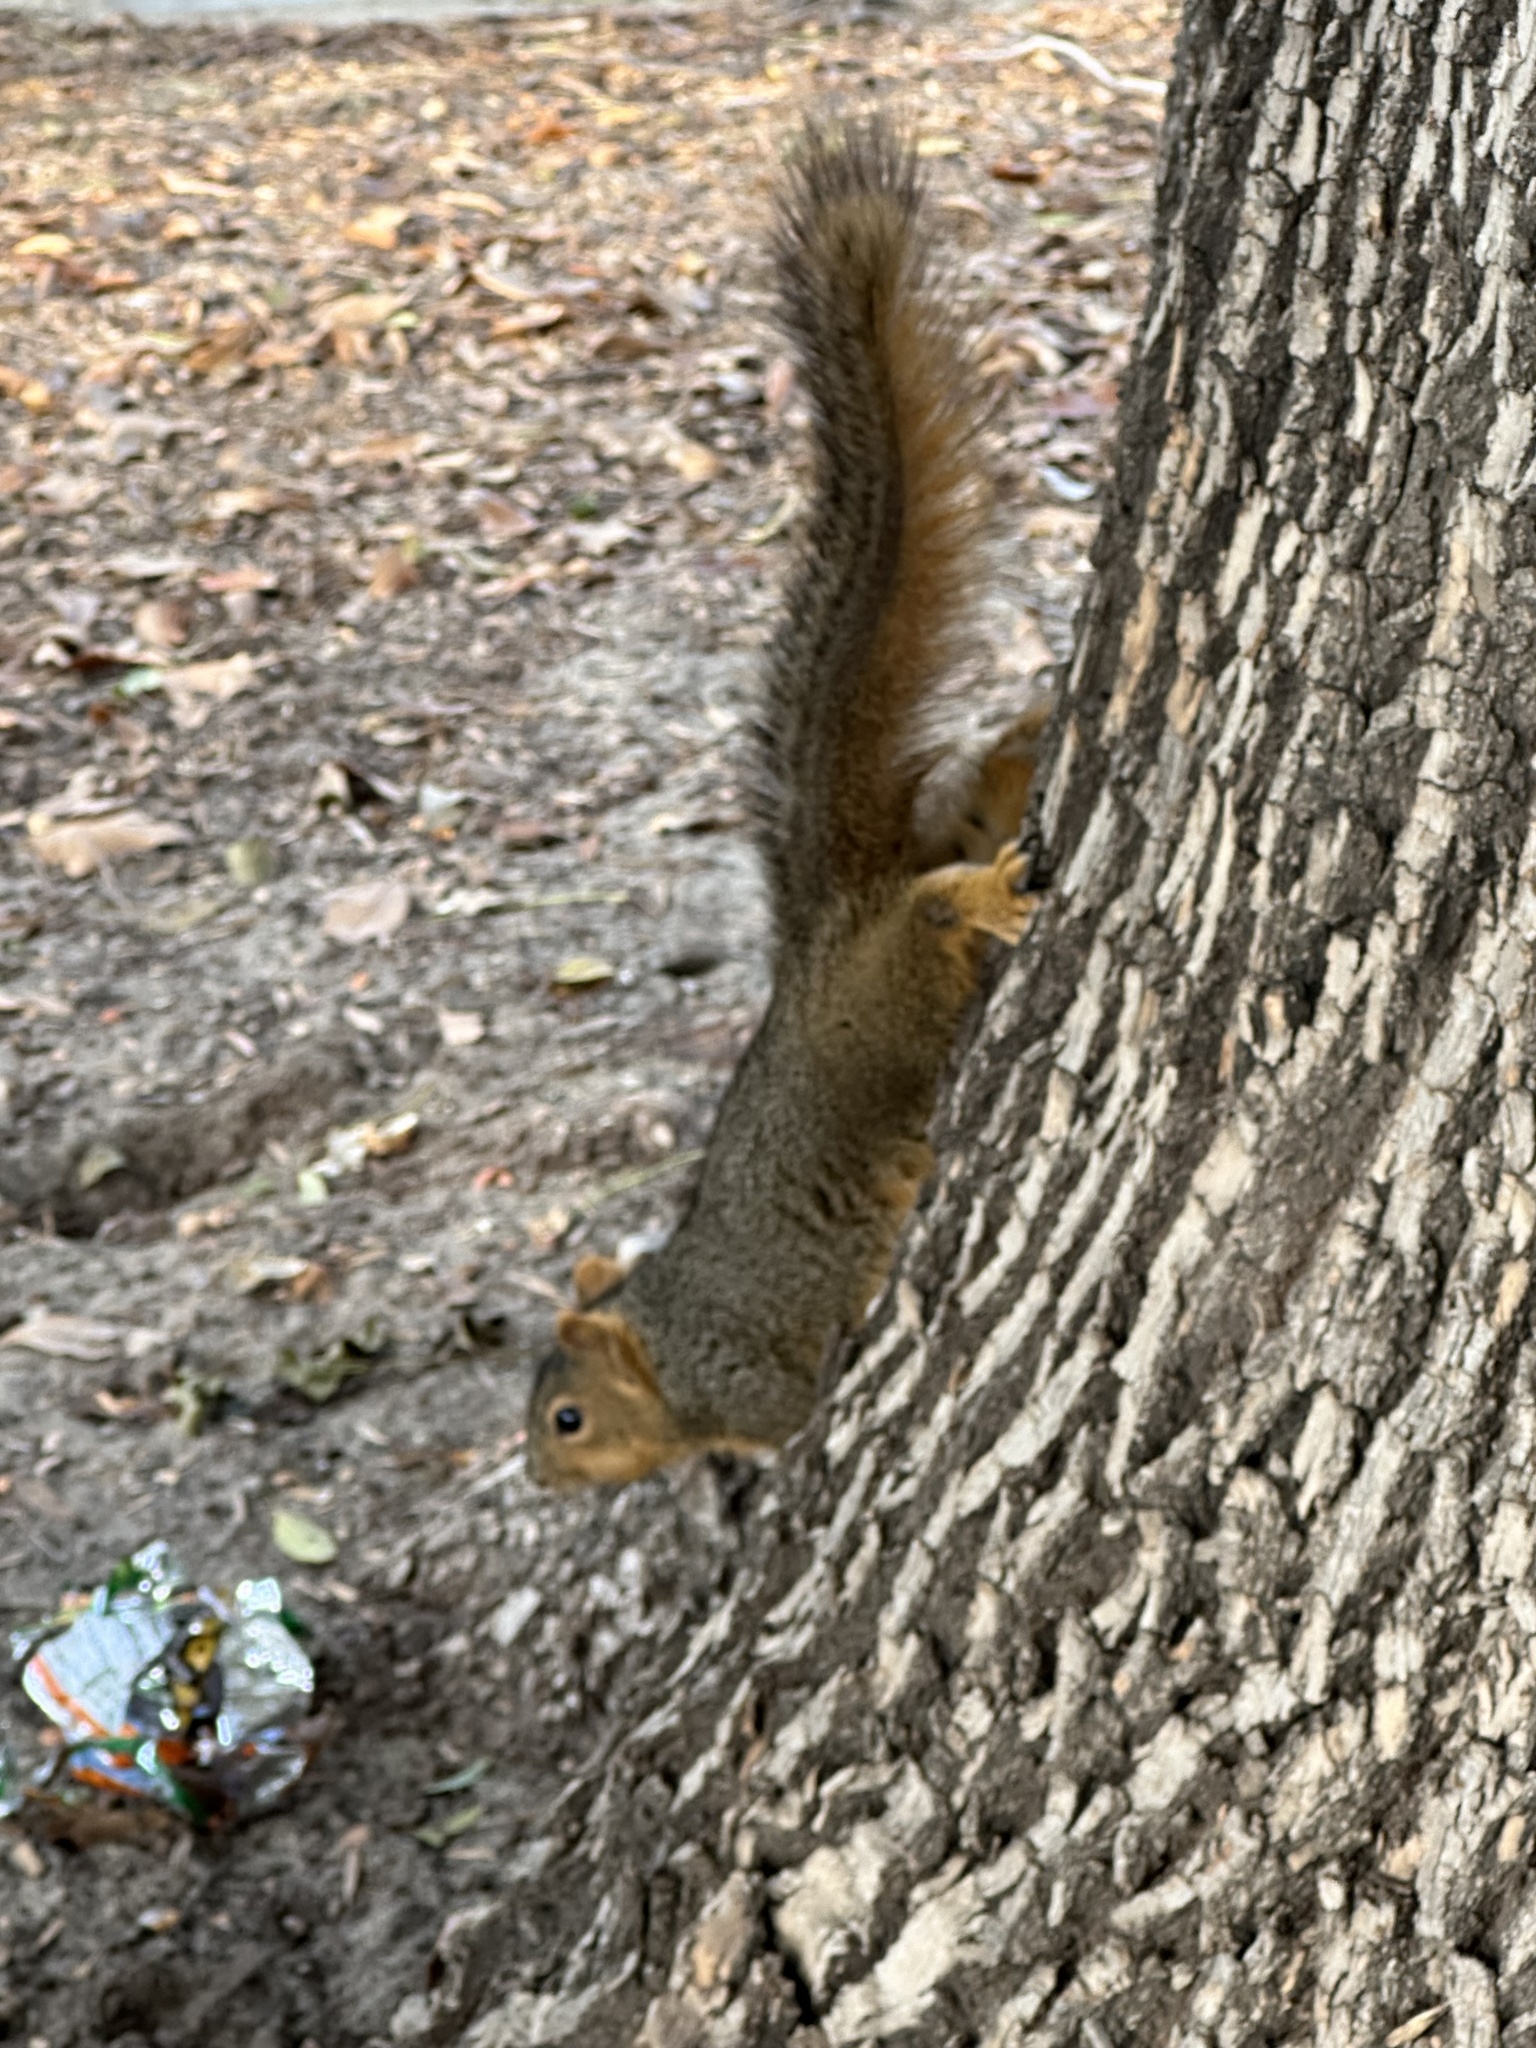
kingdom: Animalia
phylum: Chordata
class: Mammalia
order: Rodentia
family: Sciuridae
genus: Sciurus
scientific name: Sciurus niger
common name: Fox squirrel
